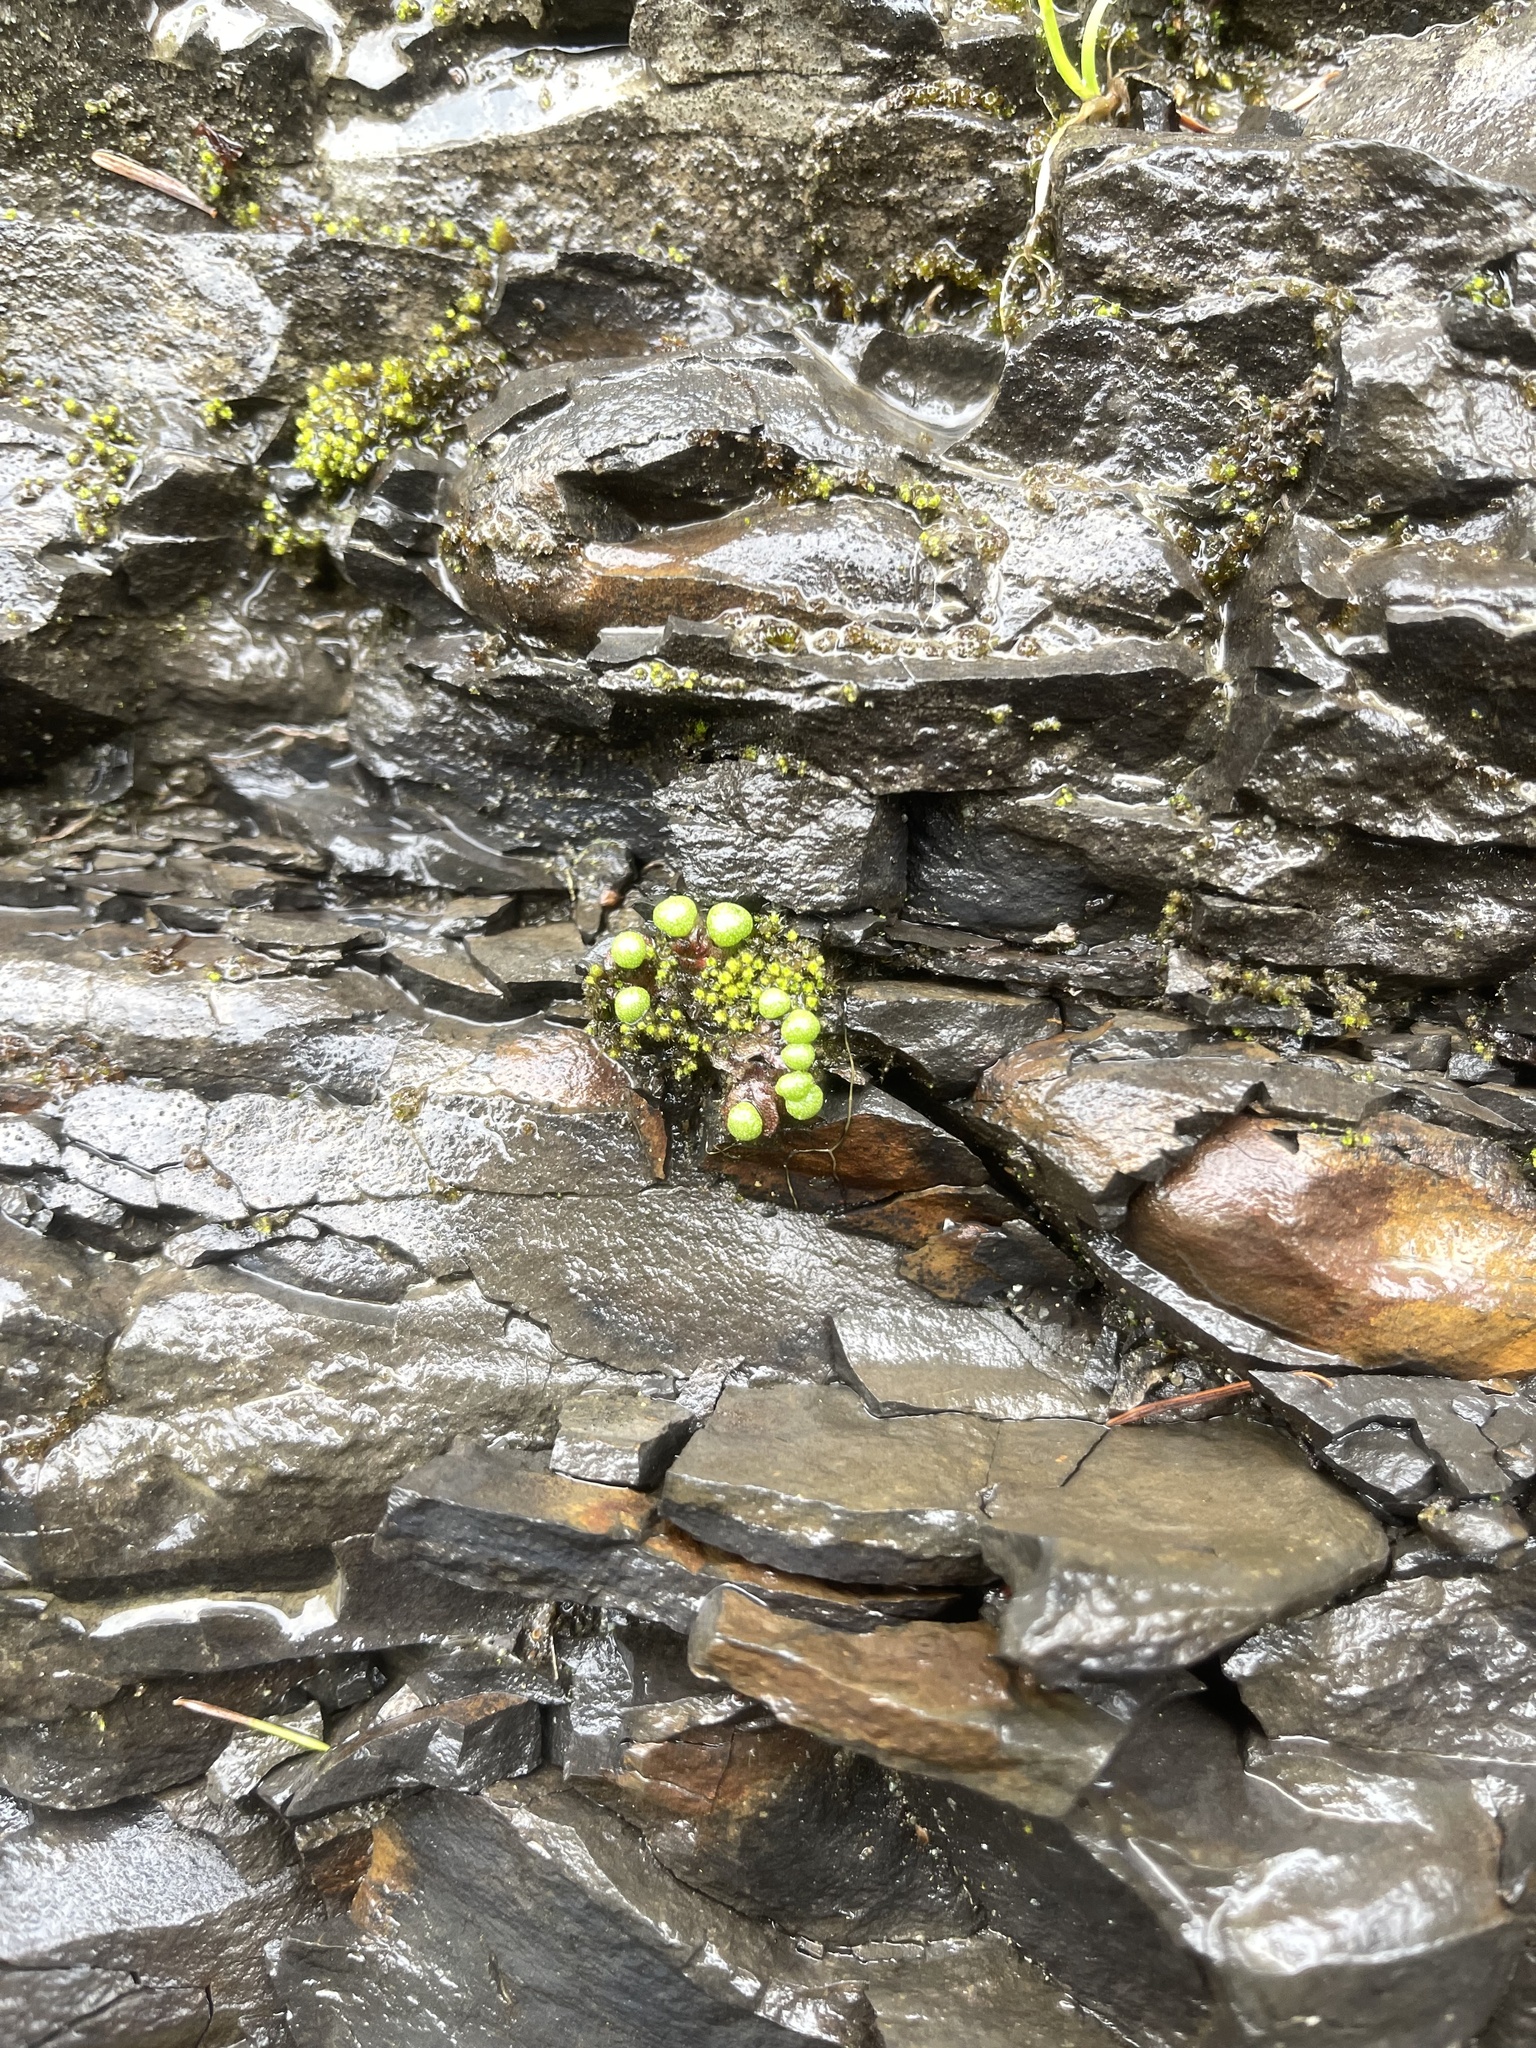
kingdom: Plantae
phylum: Marchantiophyta
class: Marchantiopsida
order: Marchantiales
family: Aytoniaceae
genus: Mannia
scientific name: Mannia gracilis
